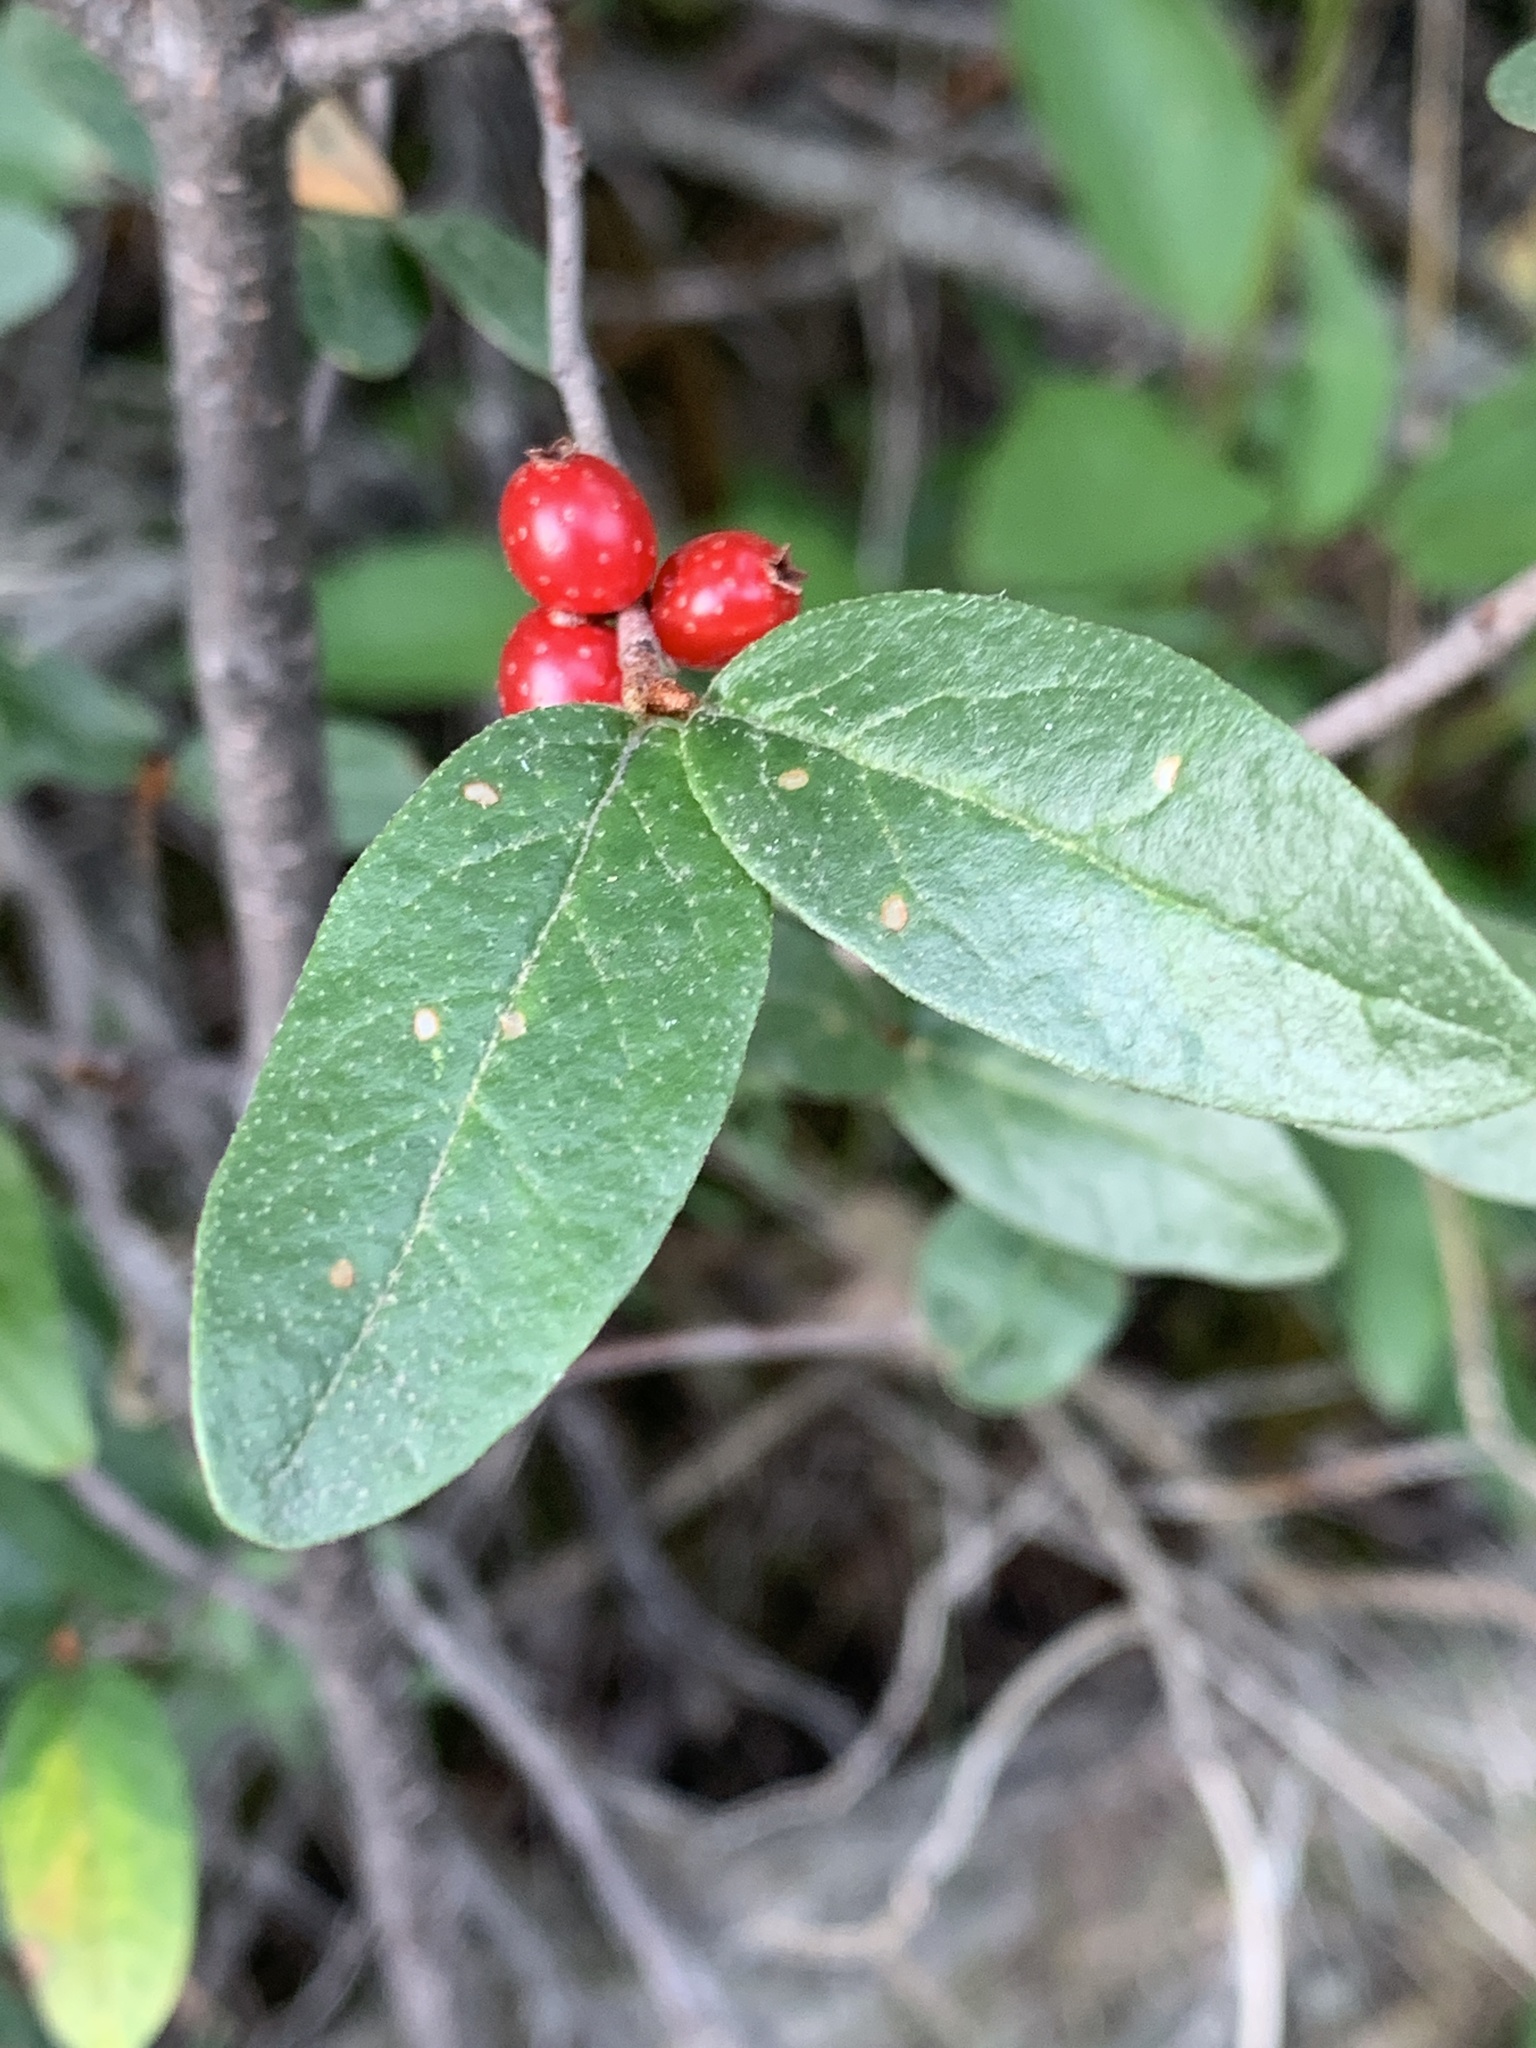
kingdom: Plantae
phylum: Tracheophyta
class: Magnoliopsida
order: Rosales
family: Elaeagnaceae
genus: Shepherdia
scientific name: Shepherdia canadensis
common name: Soapberry
